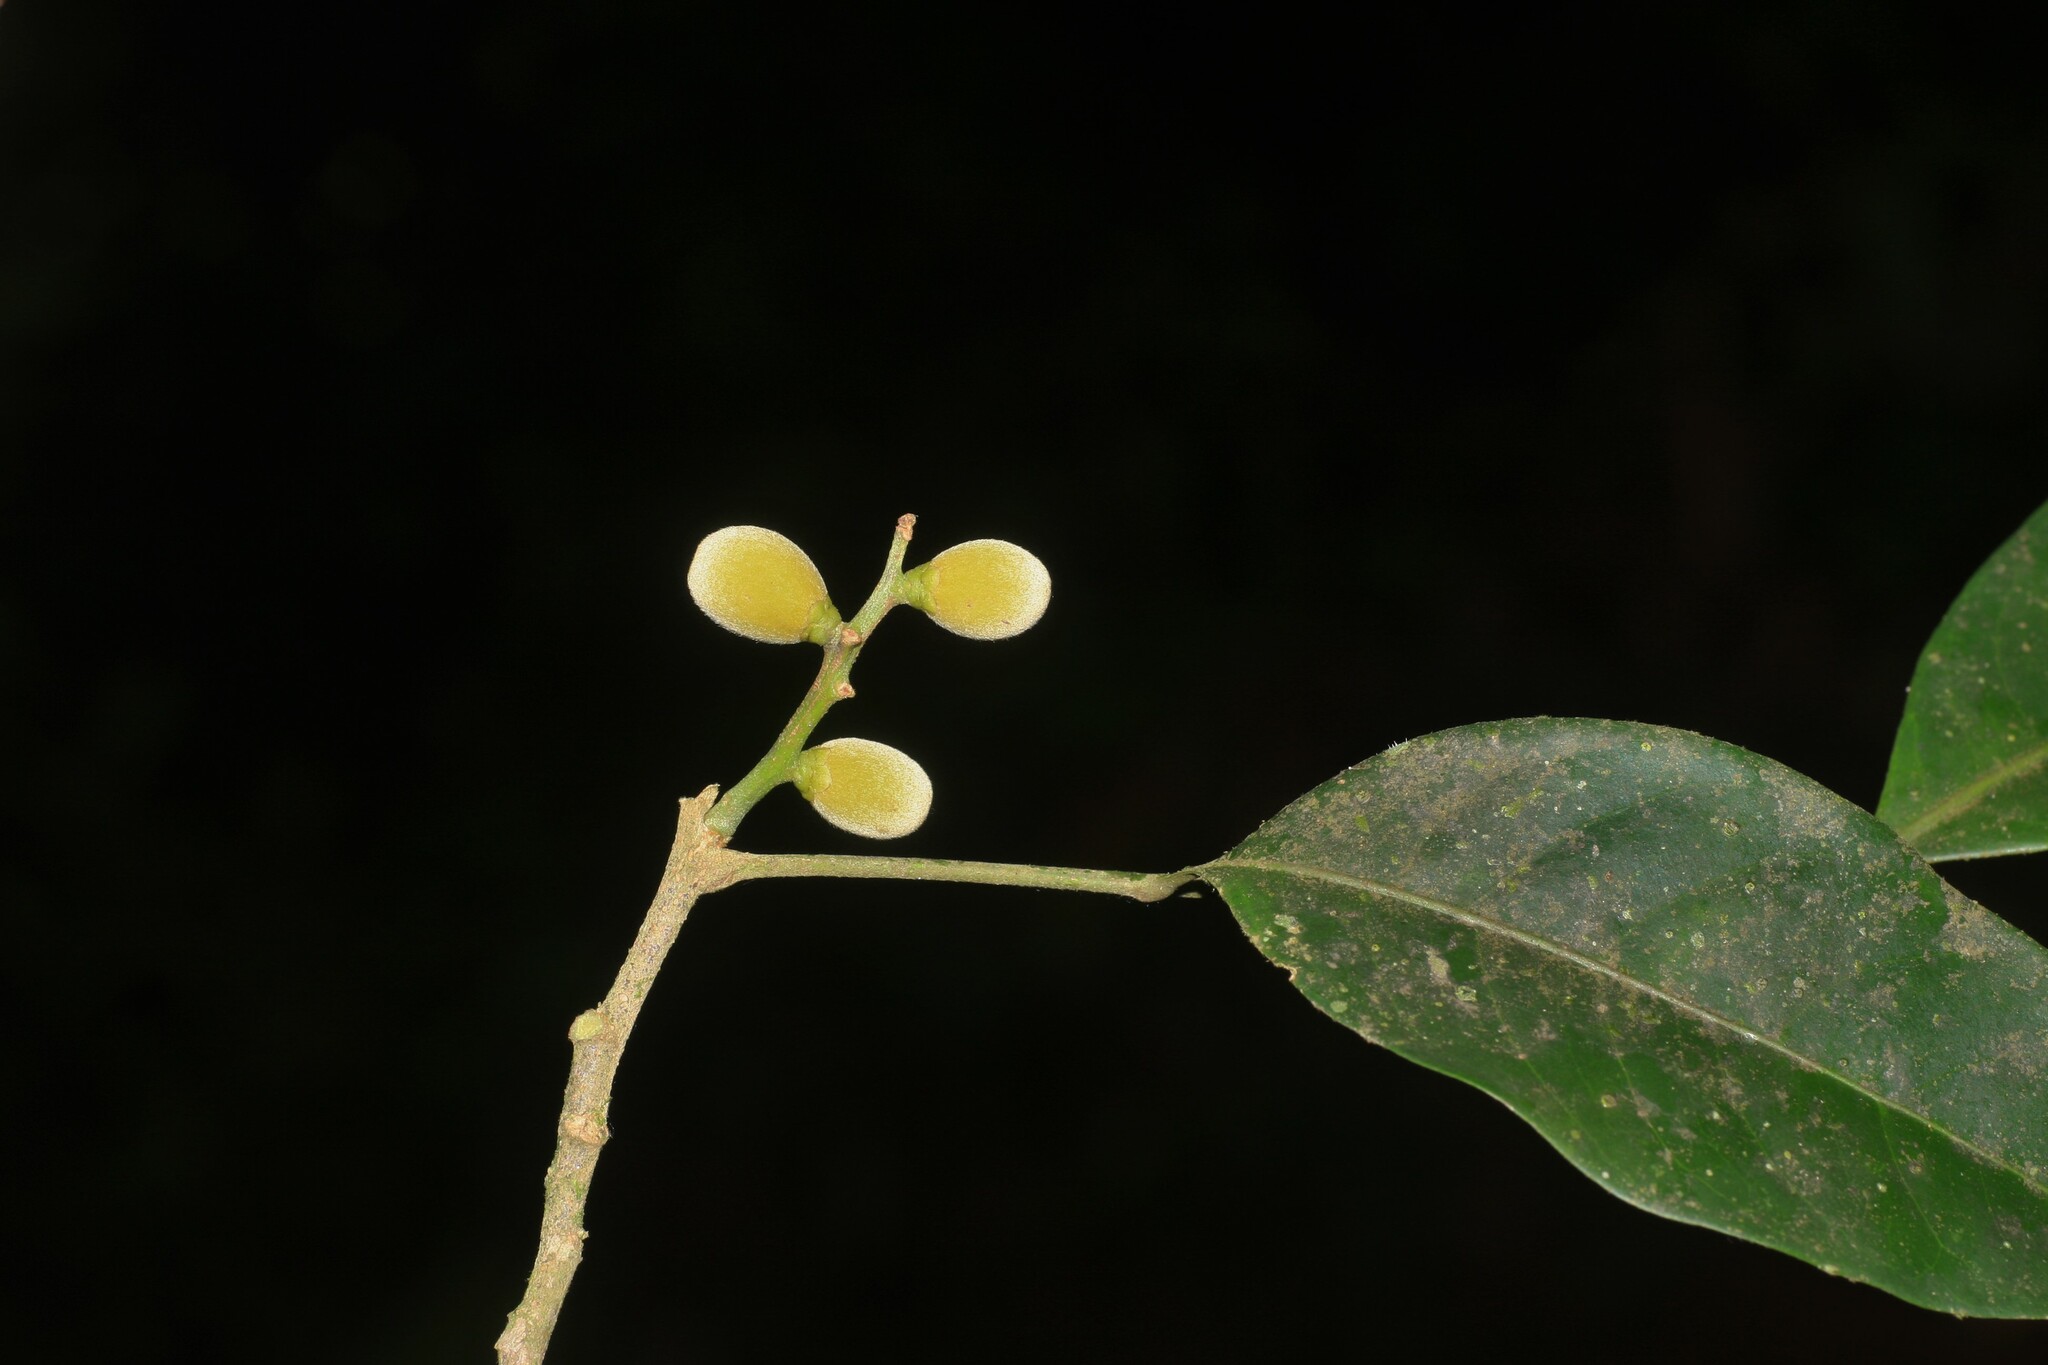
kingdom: Plantae
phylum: Tracheophyta
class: Magnoliopsida
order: Sapindales
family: Meliaceae
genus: Reinwardtiodendron
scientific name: Reinwardtiodendron anamalaiense
